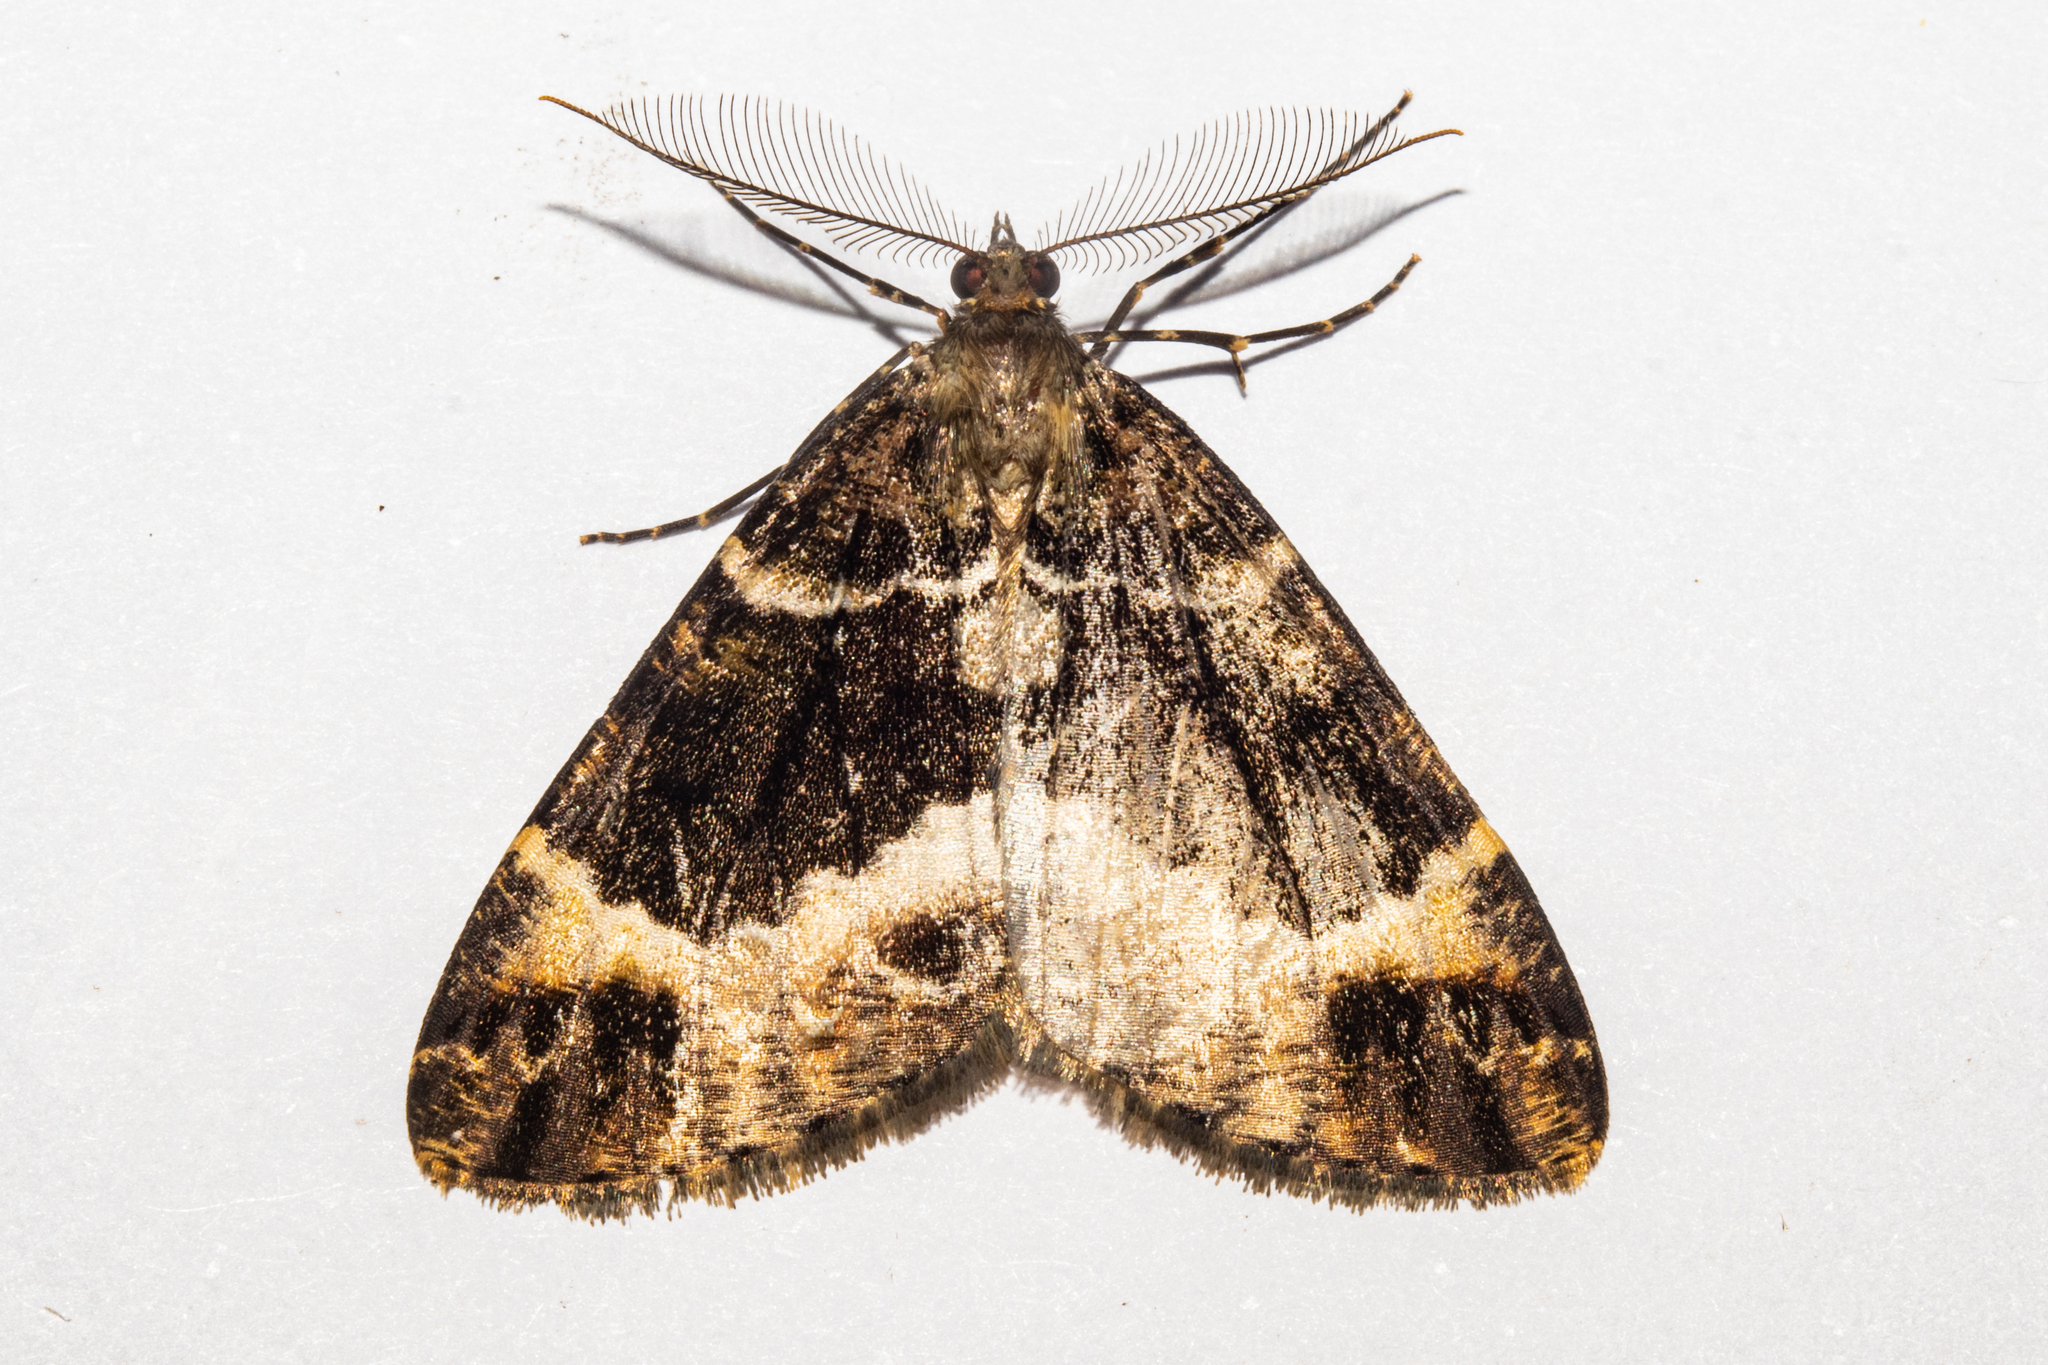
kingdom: Animalia
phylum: Arthropoda
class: Insecta
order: Lepidoptera
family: Geometridae
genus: Pseudocoremia
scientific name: Pseudocoremia productata
